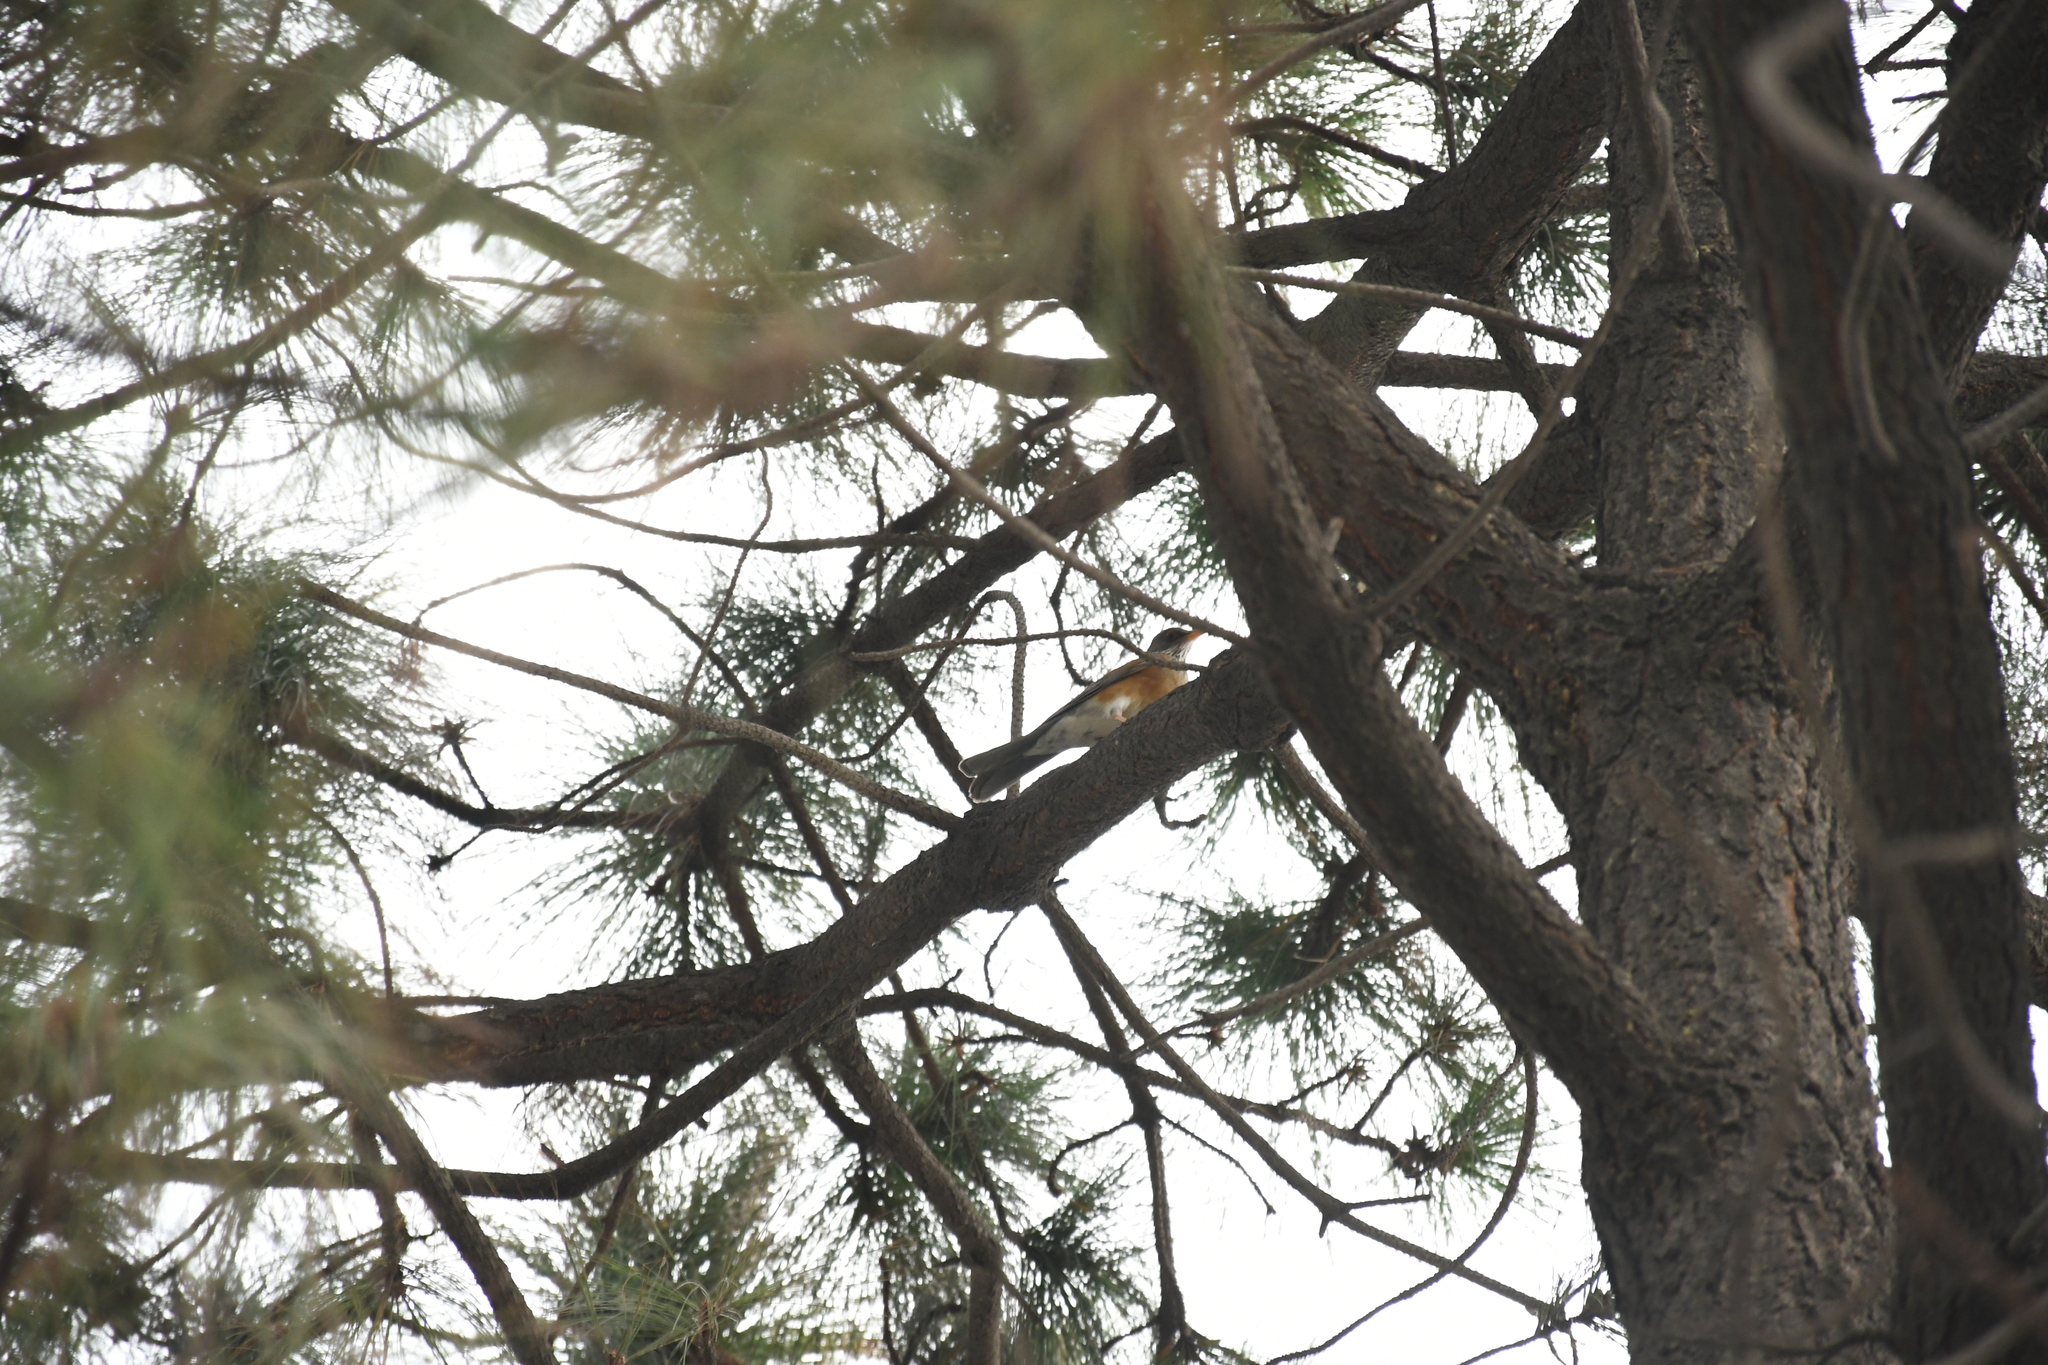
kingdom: Animalia
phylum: Chordata
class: Aves
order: Passeriformes
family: Turdidae
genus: Turdus
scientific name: Turdus rufopalliatus
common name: Rufous-backed robin
